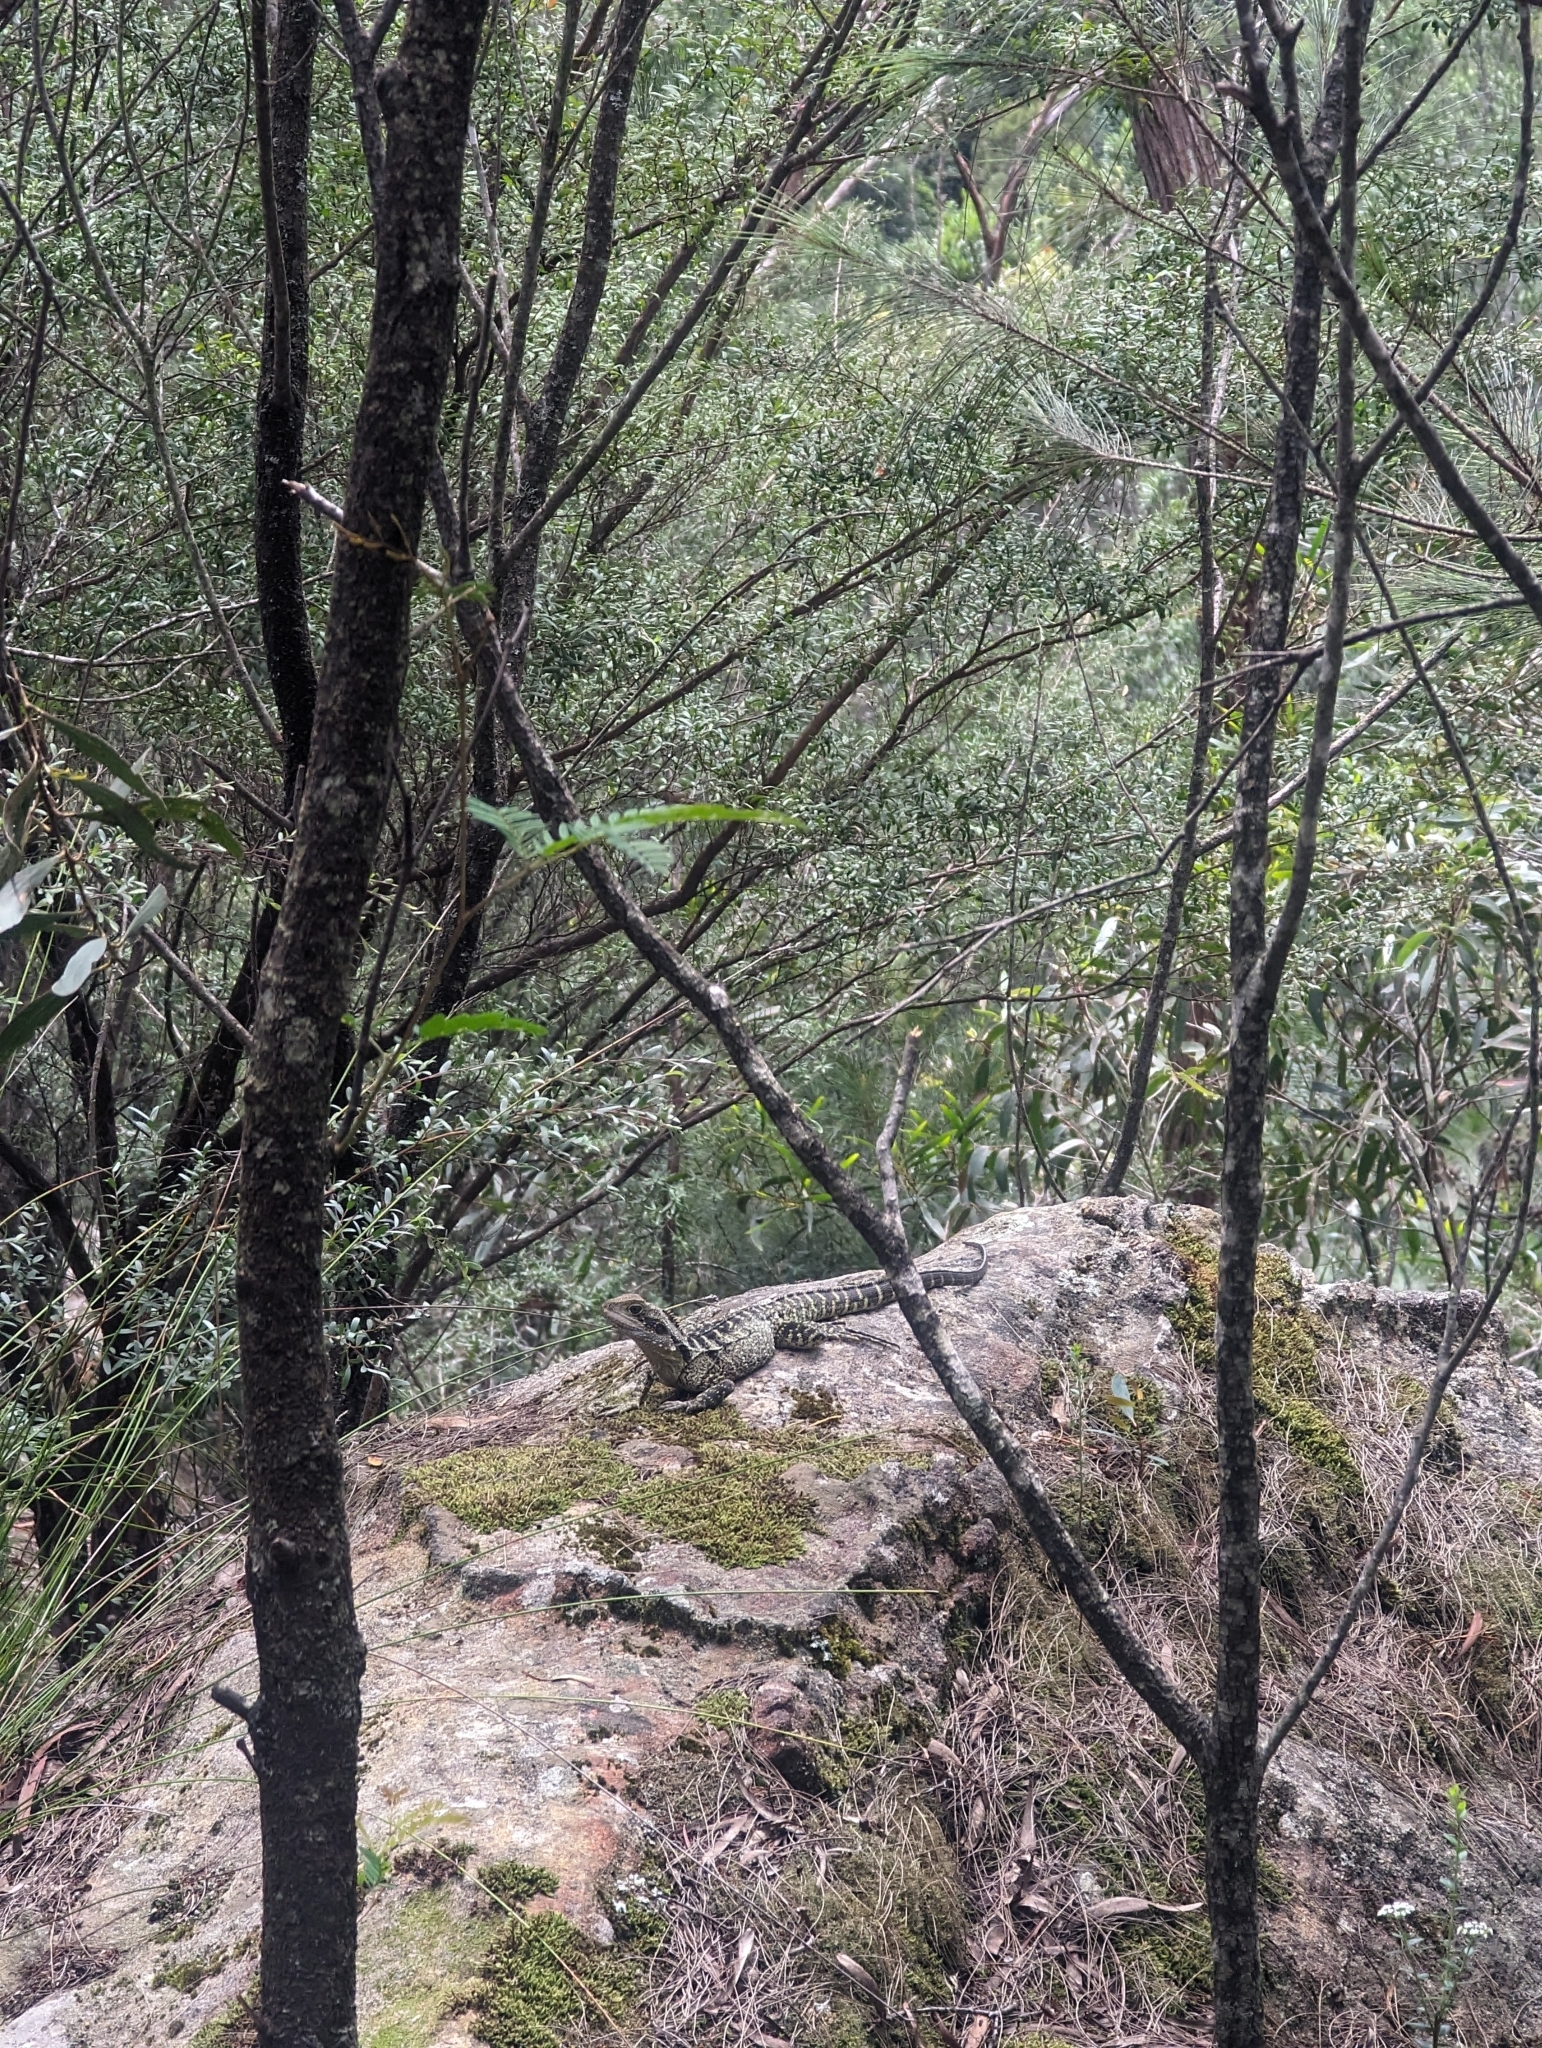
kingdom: Animalia
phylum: Chordata
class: Squamata
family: Agamidae
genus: Intellagama
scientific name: Intellagama lesueurii
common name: Eastern water dragon
